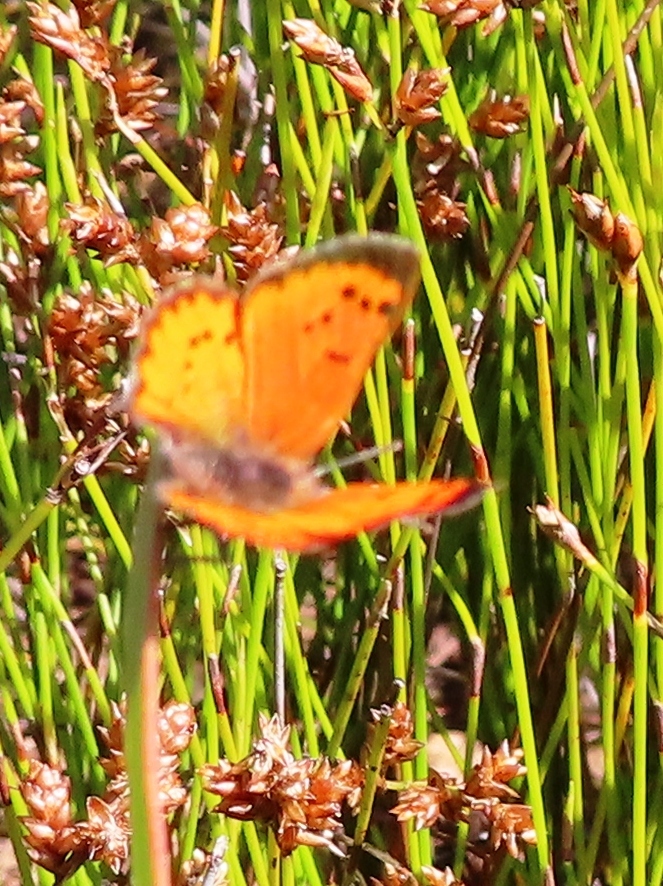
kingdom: Animalia
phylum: Arthropoda
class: Insecta
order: Lepidoptera
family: Lycaenidae
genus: Zeritis
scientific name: Zeritis chrysaor
